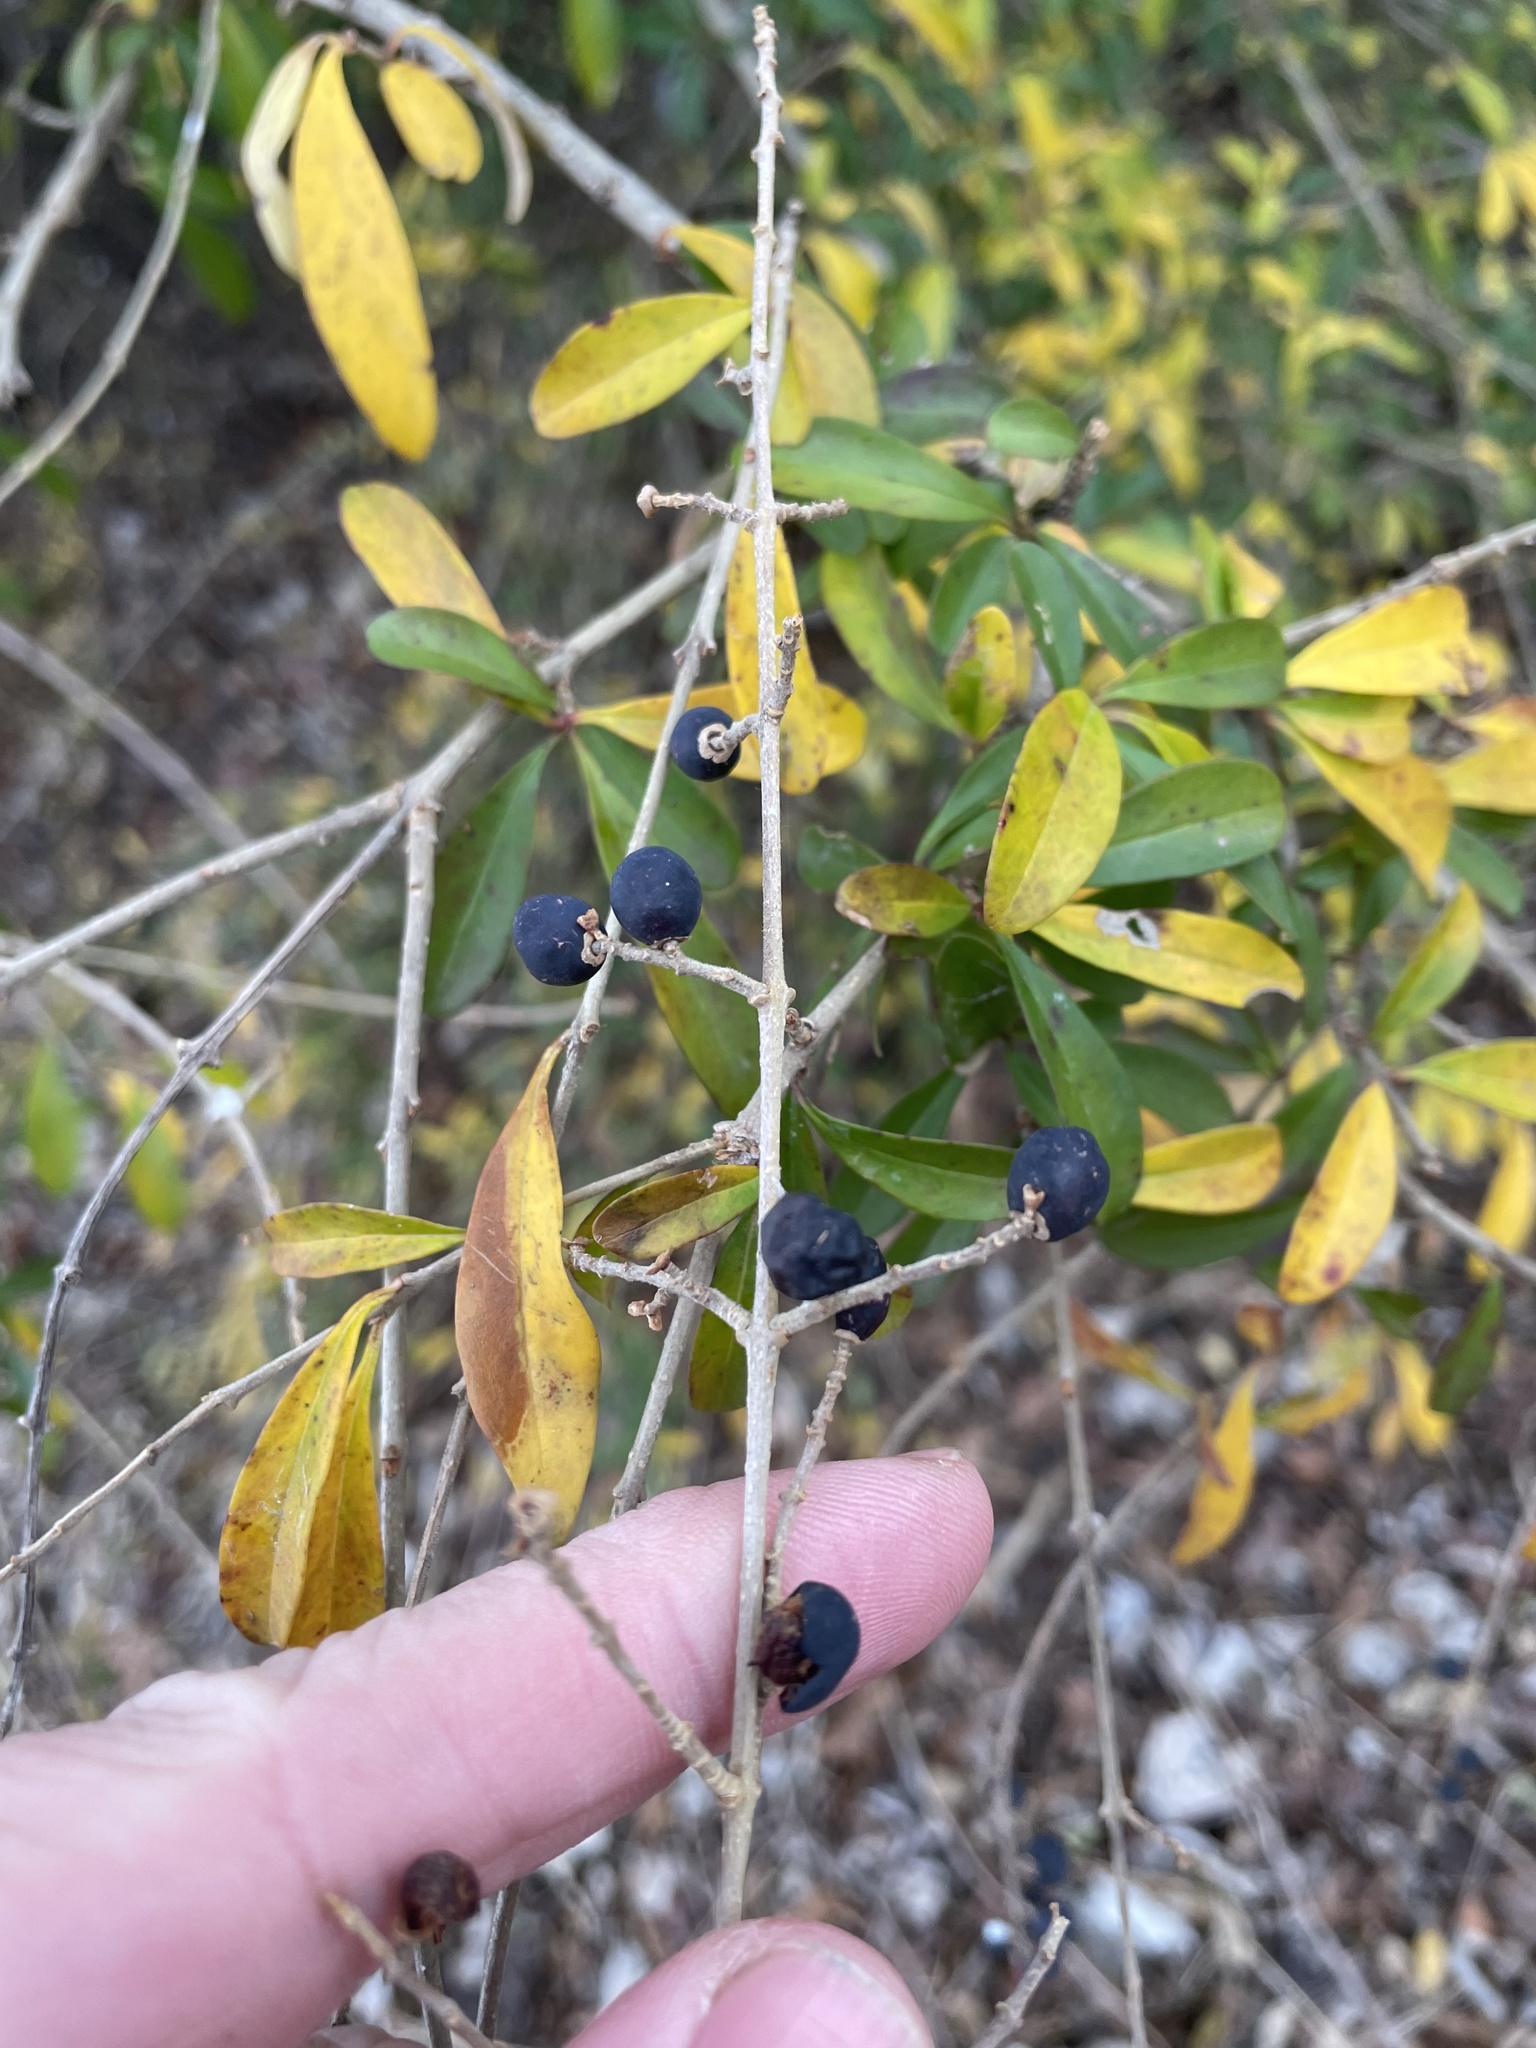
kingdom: Plantae
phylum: Tracheophyta
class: Magnoliopsida
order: Lamiales
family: Oleaceae
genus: Ligustrum
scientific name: Ligustrum quihoui
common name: Waxyleaf privet
